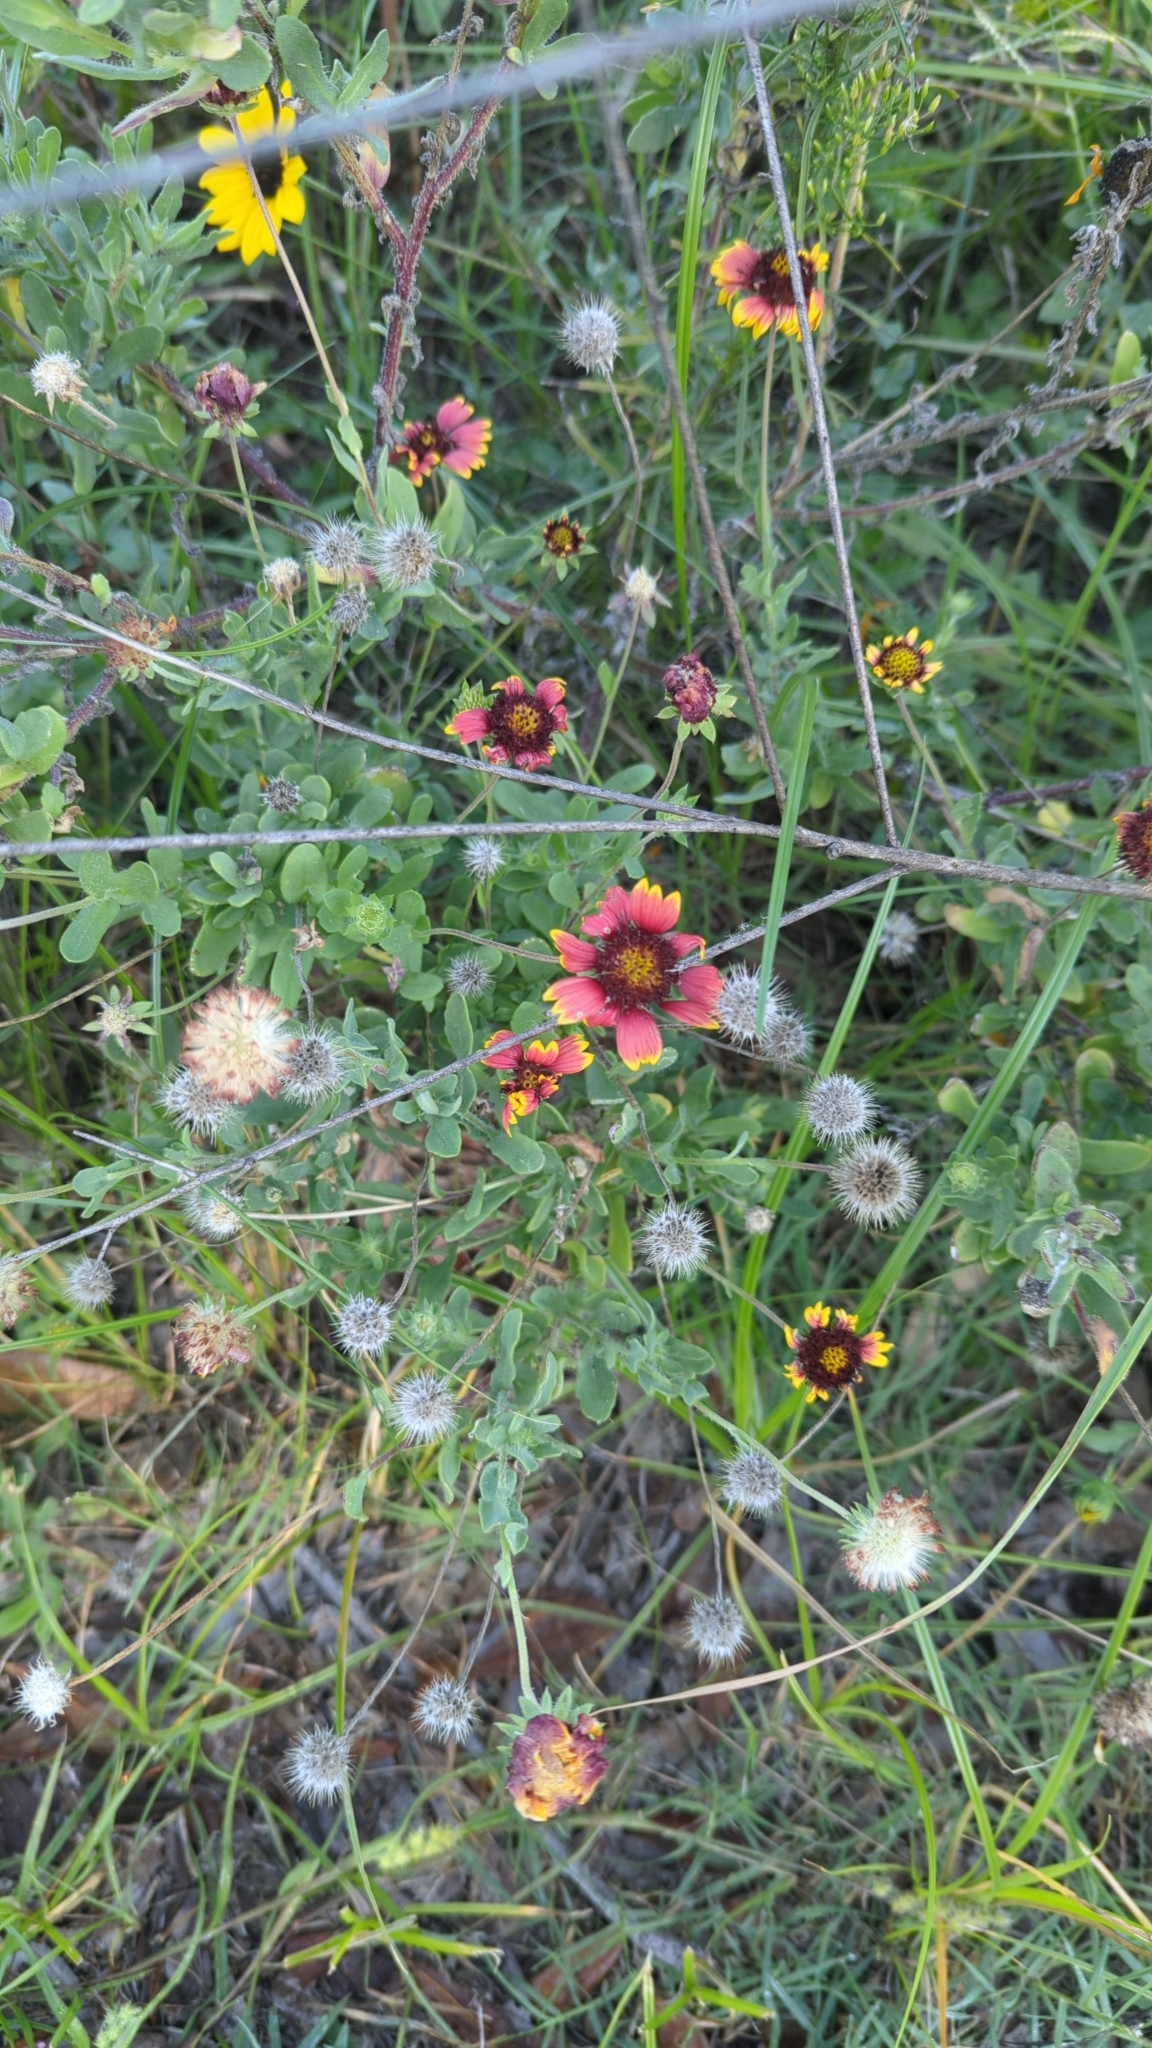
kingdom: Plantae
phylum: Tracheophyta
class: Magnoliopsida
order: Asterales
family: Asteraceae
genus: Gaillardia
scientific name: Gaillardia pulchella
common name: Firewheel
